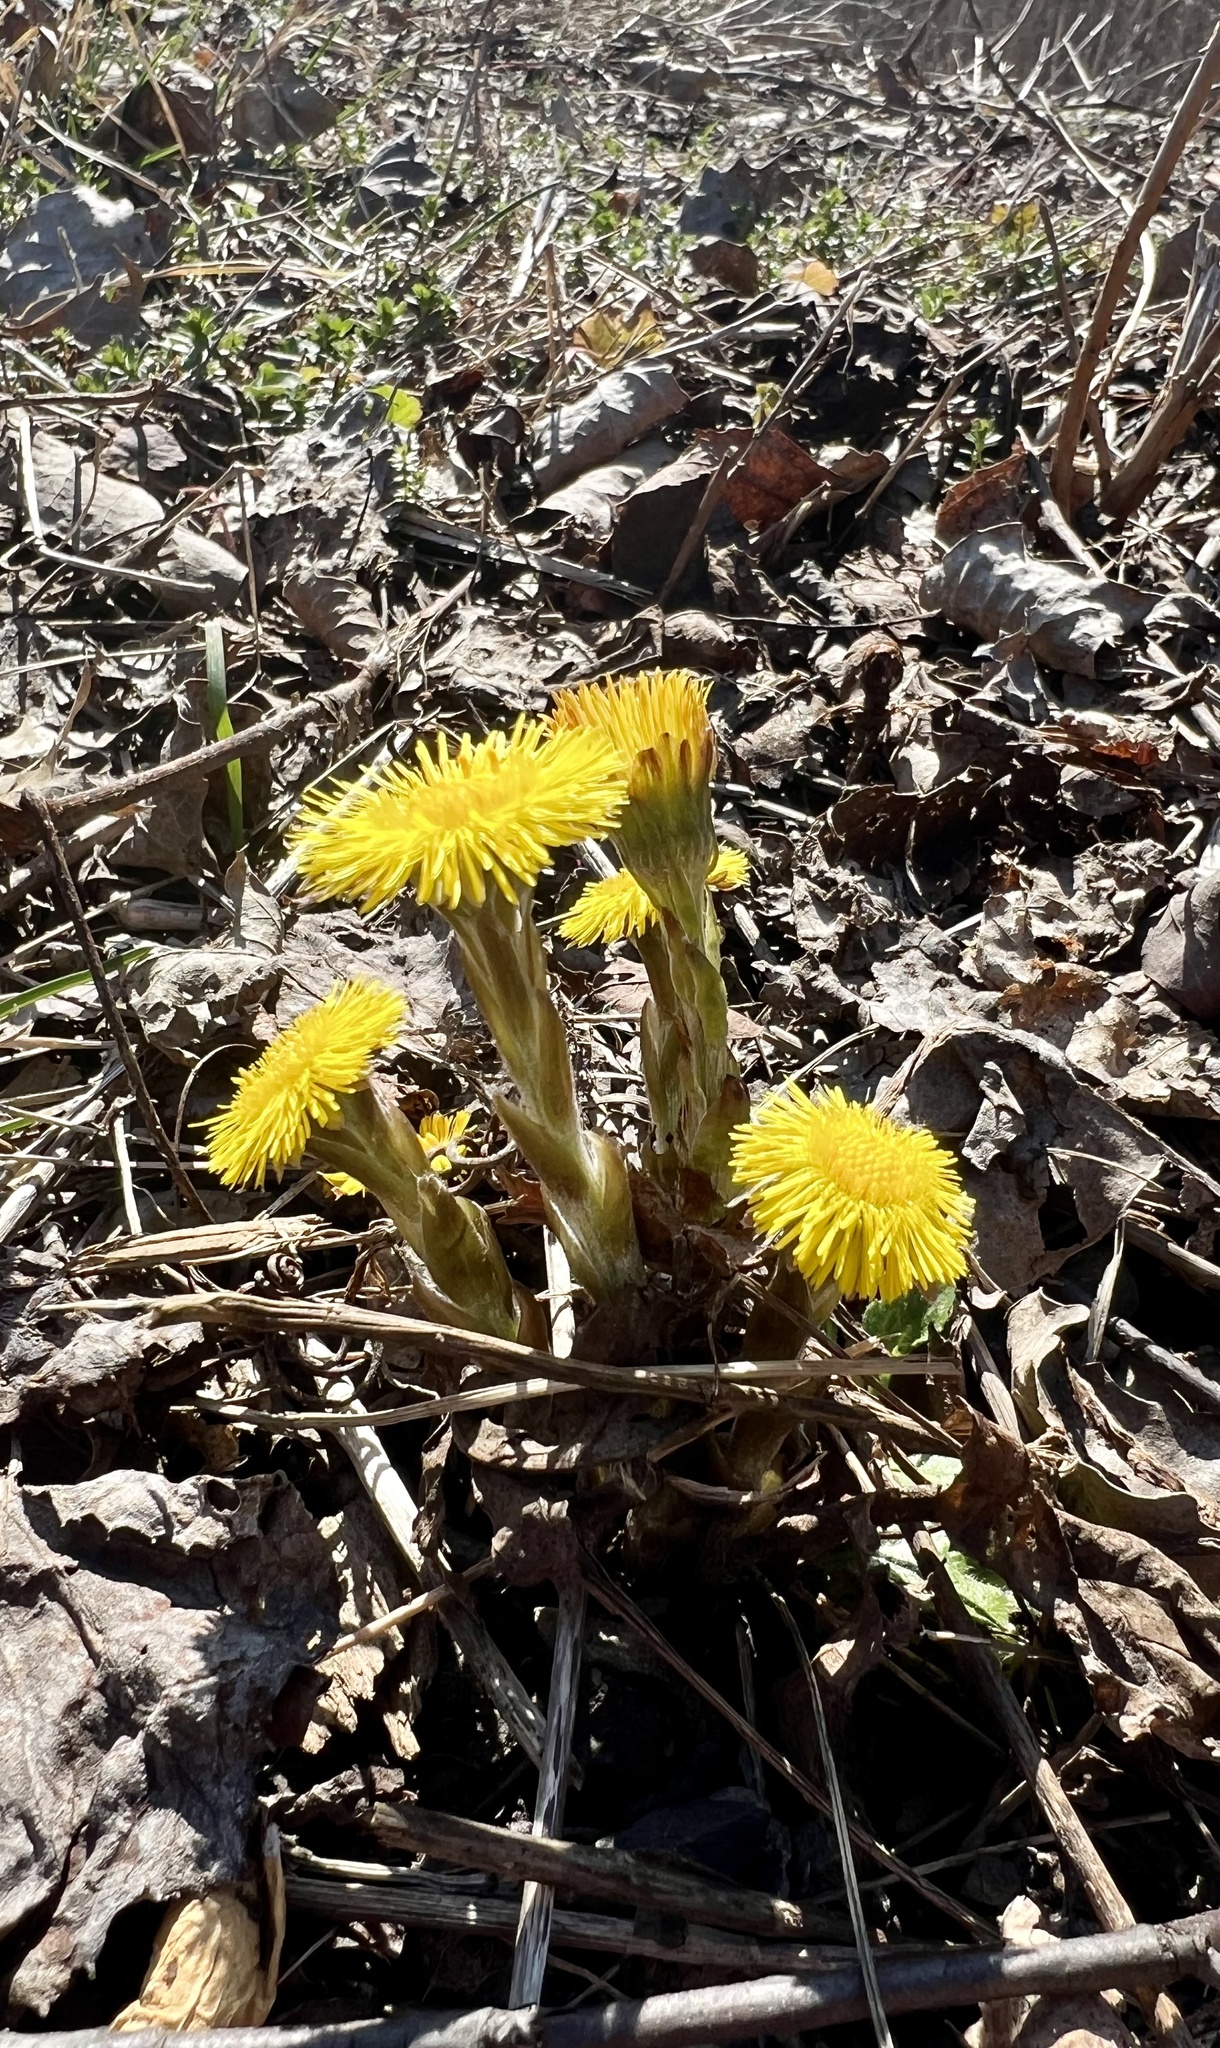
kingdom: Plantae
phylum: Tracheophyta
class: Magnoliopsida
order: Asterales
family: Asteraceae
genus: Tussilago
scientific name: Tussilago farfara
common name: Coltsfoot
